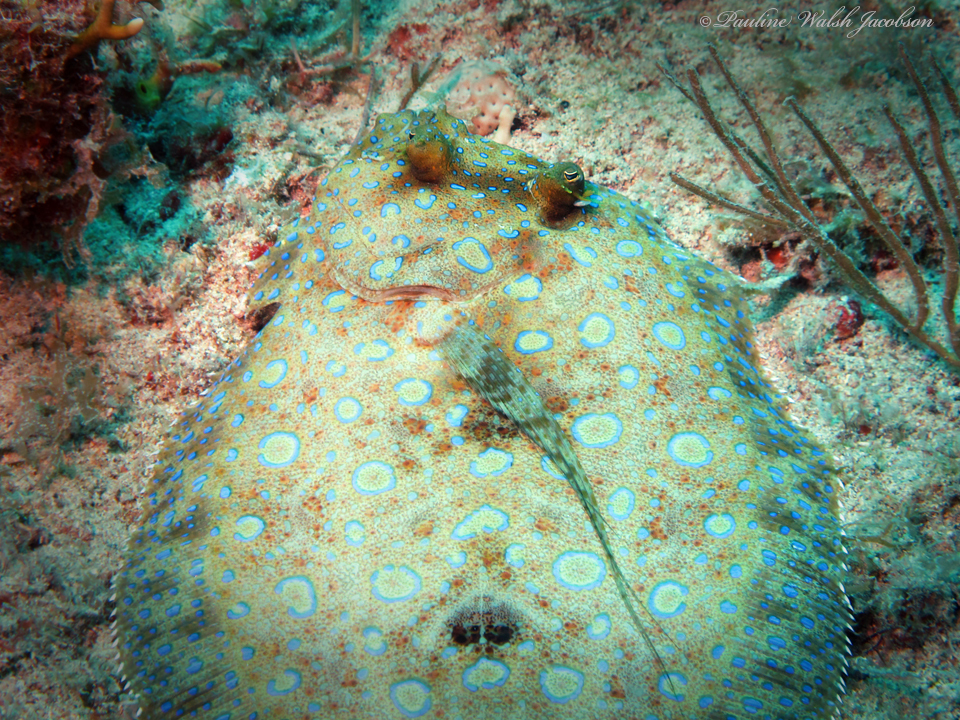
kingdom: Animalia
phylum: Chordata
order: Pleuronectiformes
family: Bothidae
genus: Bothus
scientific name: Bothus lunatus
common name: Peacock flounder
